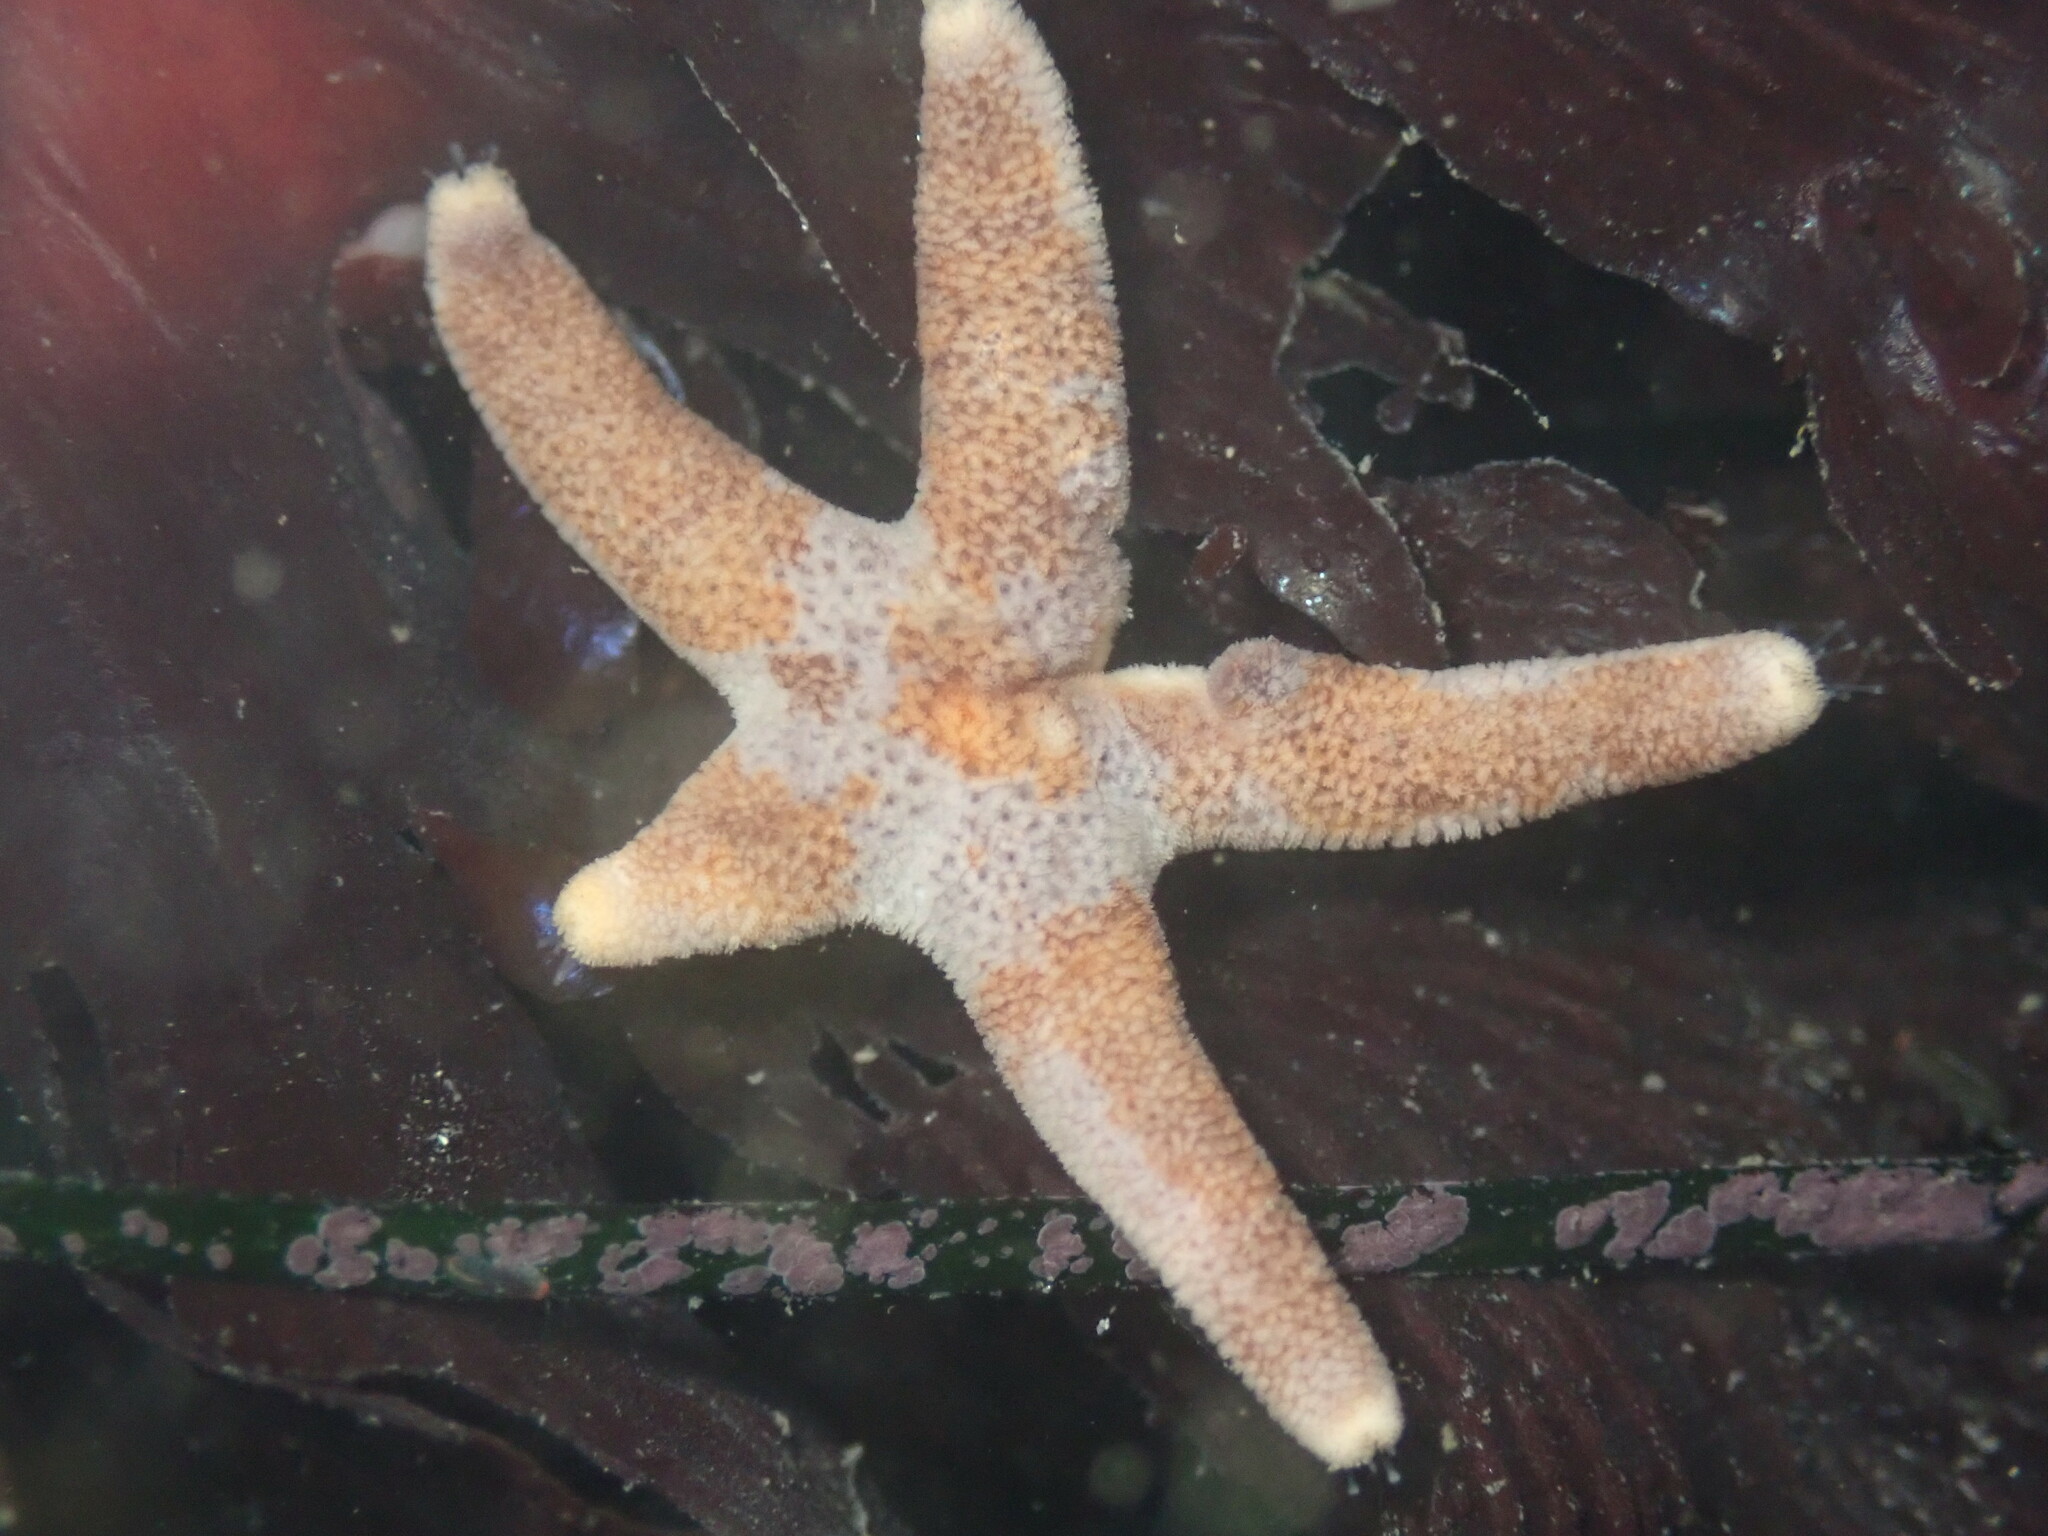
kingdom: Animalia
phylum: Echinodermata
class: Asteroidea
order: Spinulosida
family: Echinasteridae
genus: Henricia
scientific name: Henricia pumila
